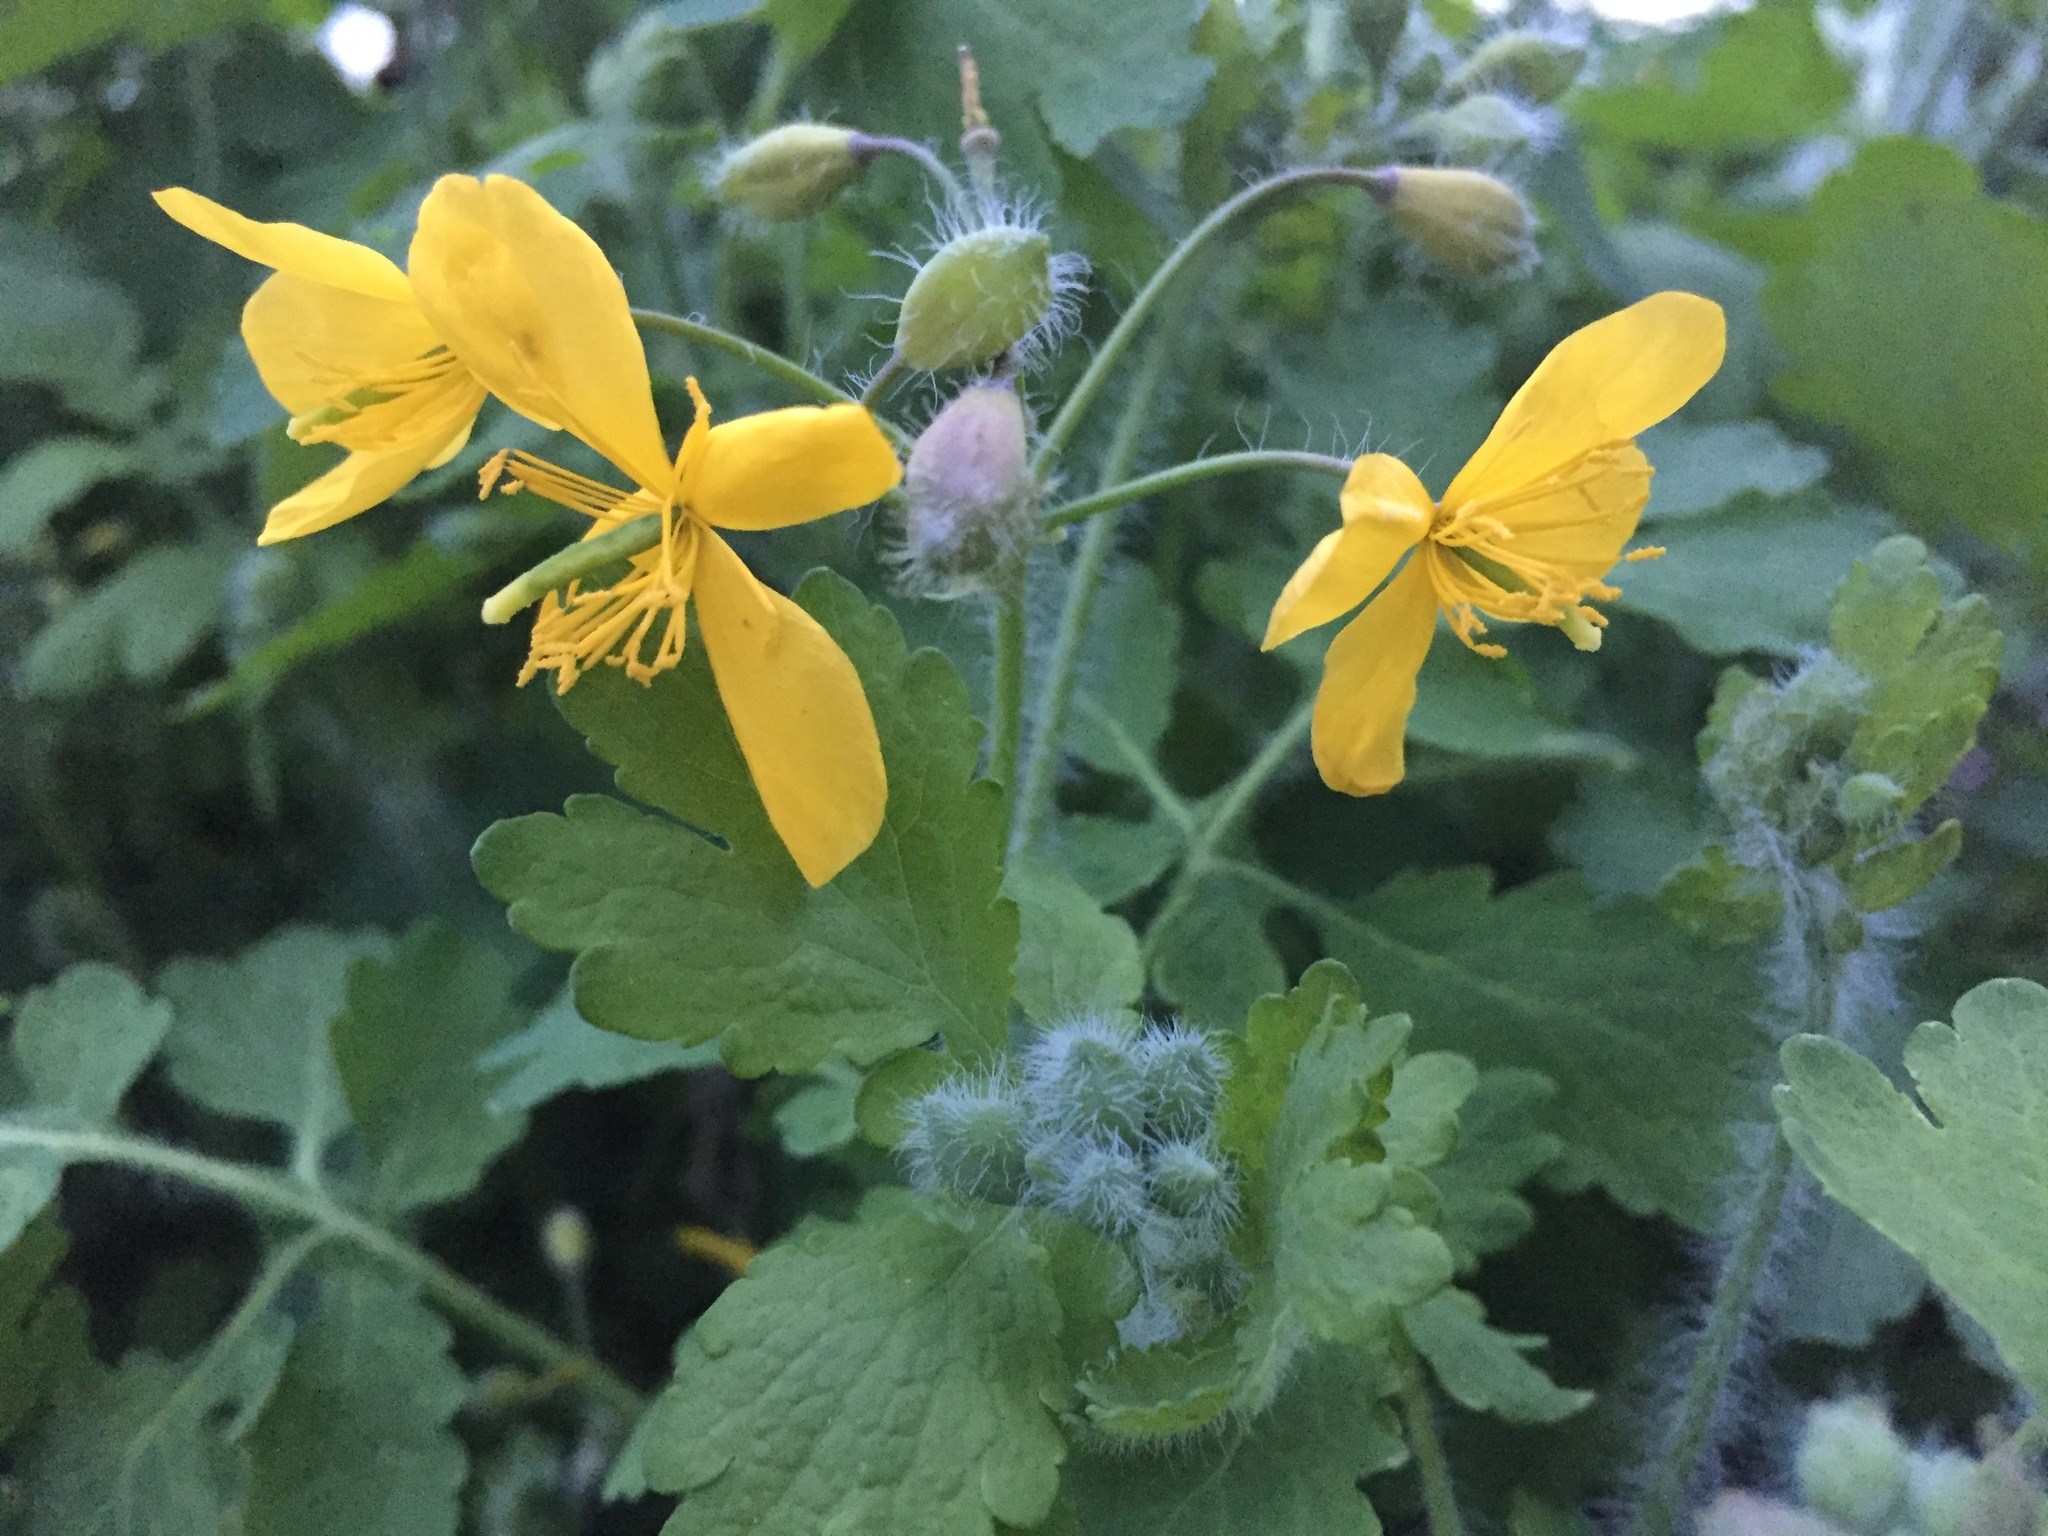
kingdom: Plantae
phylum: Tracheophyta
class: Magnoliopsida
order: Ranunculales
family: Papaveraceae
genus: Chelidonium
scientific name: Chelidonium majus
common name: Greater celandine
